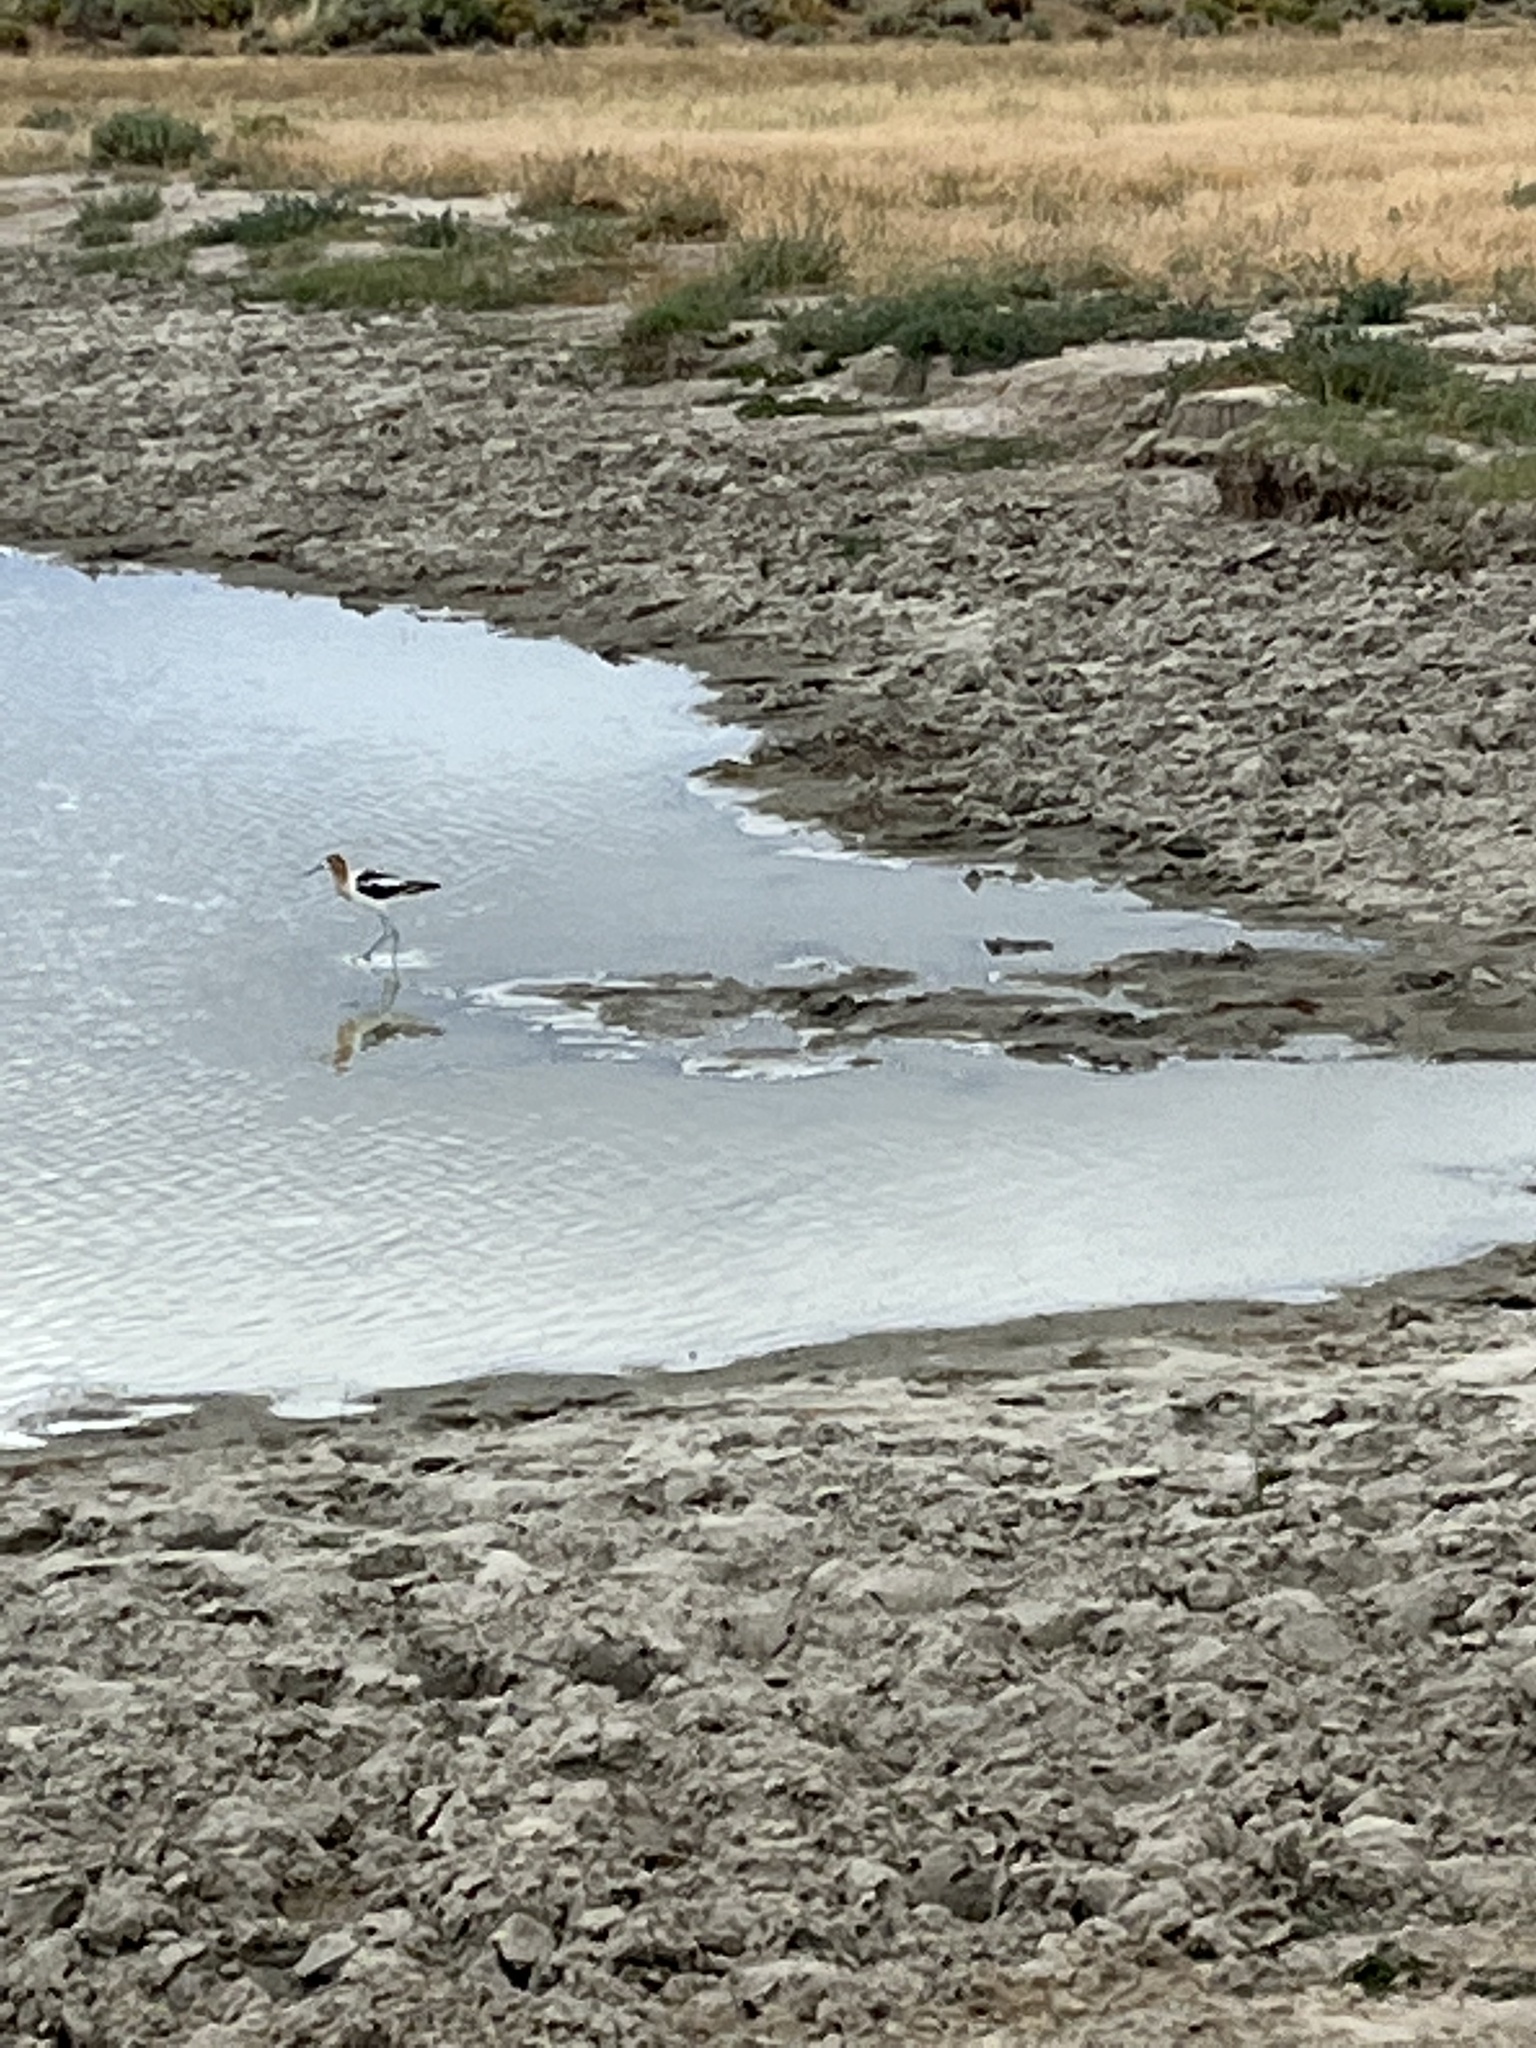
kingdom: Animalia
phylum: Chordata
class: Aves
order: Charadriiformes
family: Recurvirostridae
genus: Recurvirostra
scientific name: Recurvirostra americana
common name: American avocet
